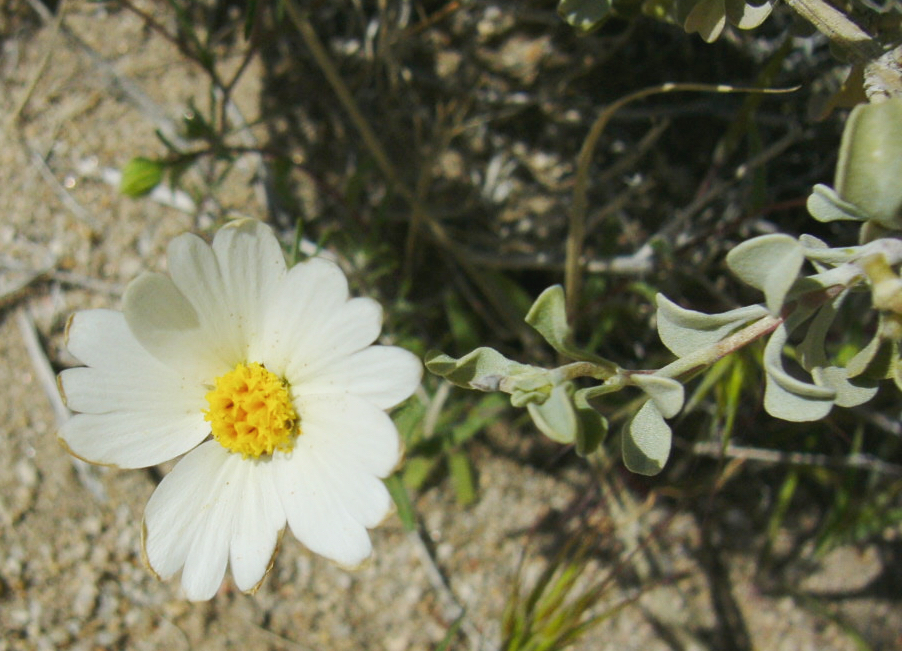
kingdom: Plantae
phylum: Tracheophyta
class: Magnoliopsida
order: Asterales
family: Asteraceae
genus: Layia
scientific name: Layia glandulosa
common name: White layia
